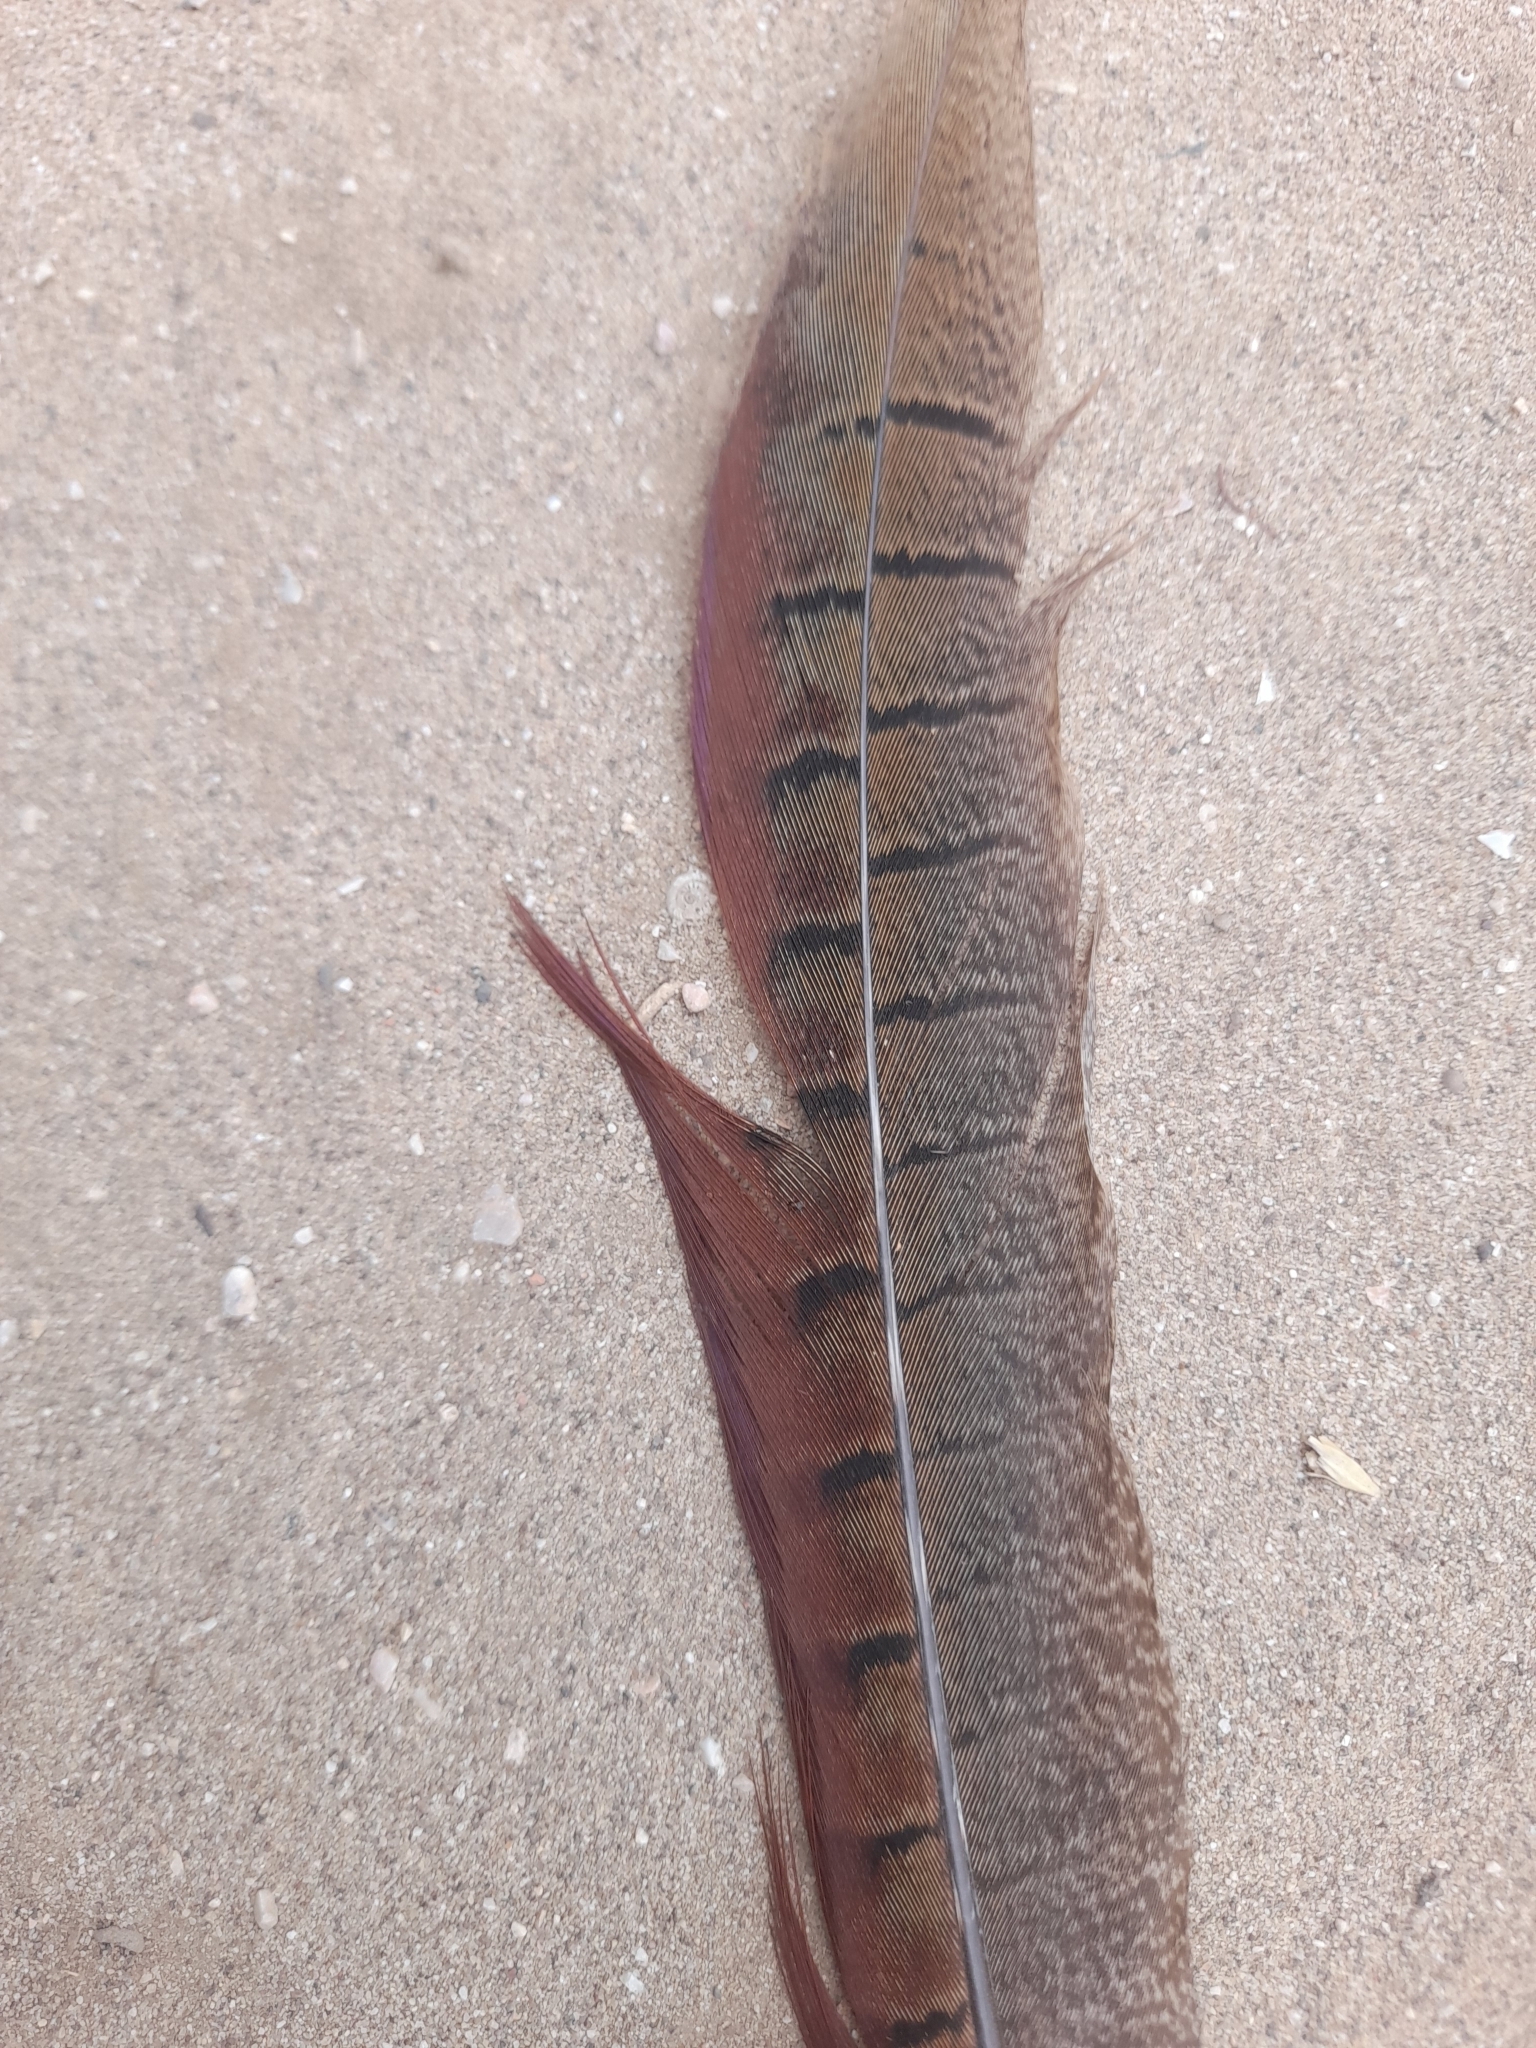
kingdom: Animalia
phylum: Chordata
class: Aves
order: Galliformes
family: Phasianidae
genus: Phasianus
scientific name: Phasianus colchicus
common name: Common pheasant
